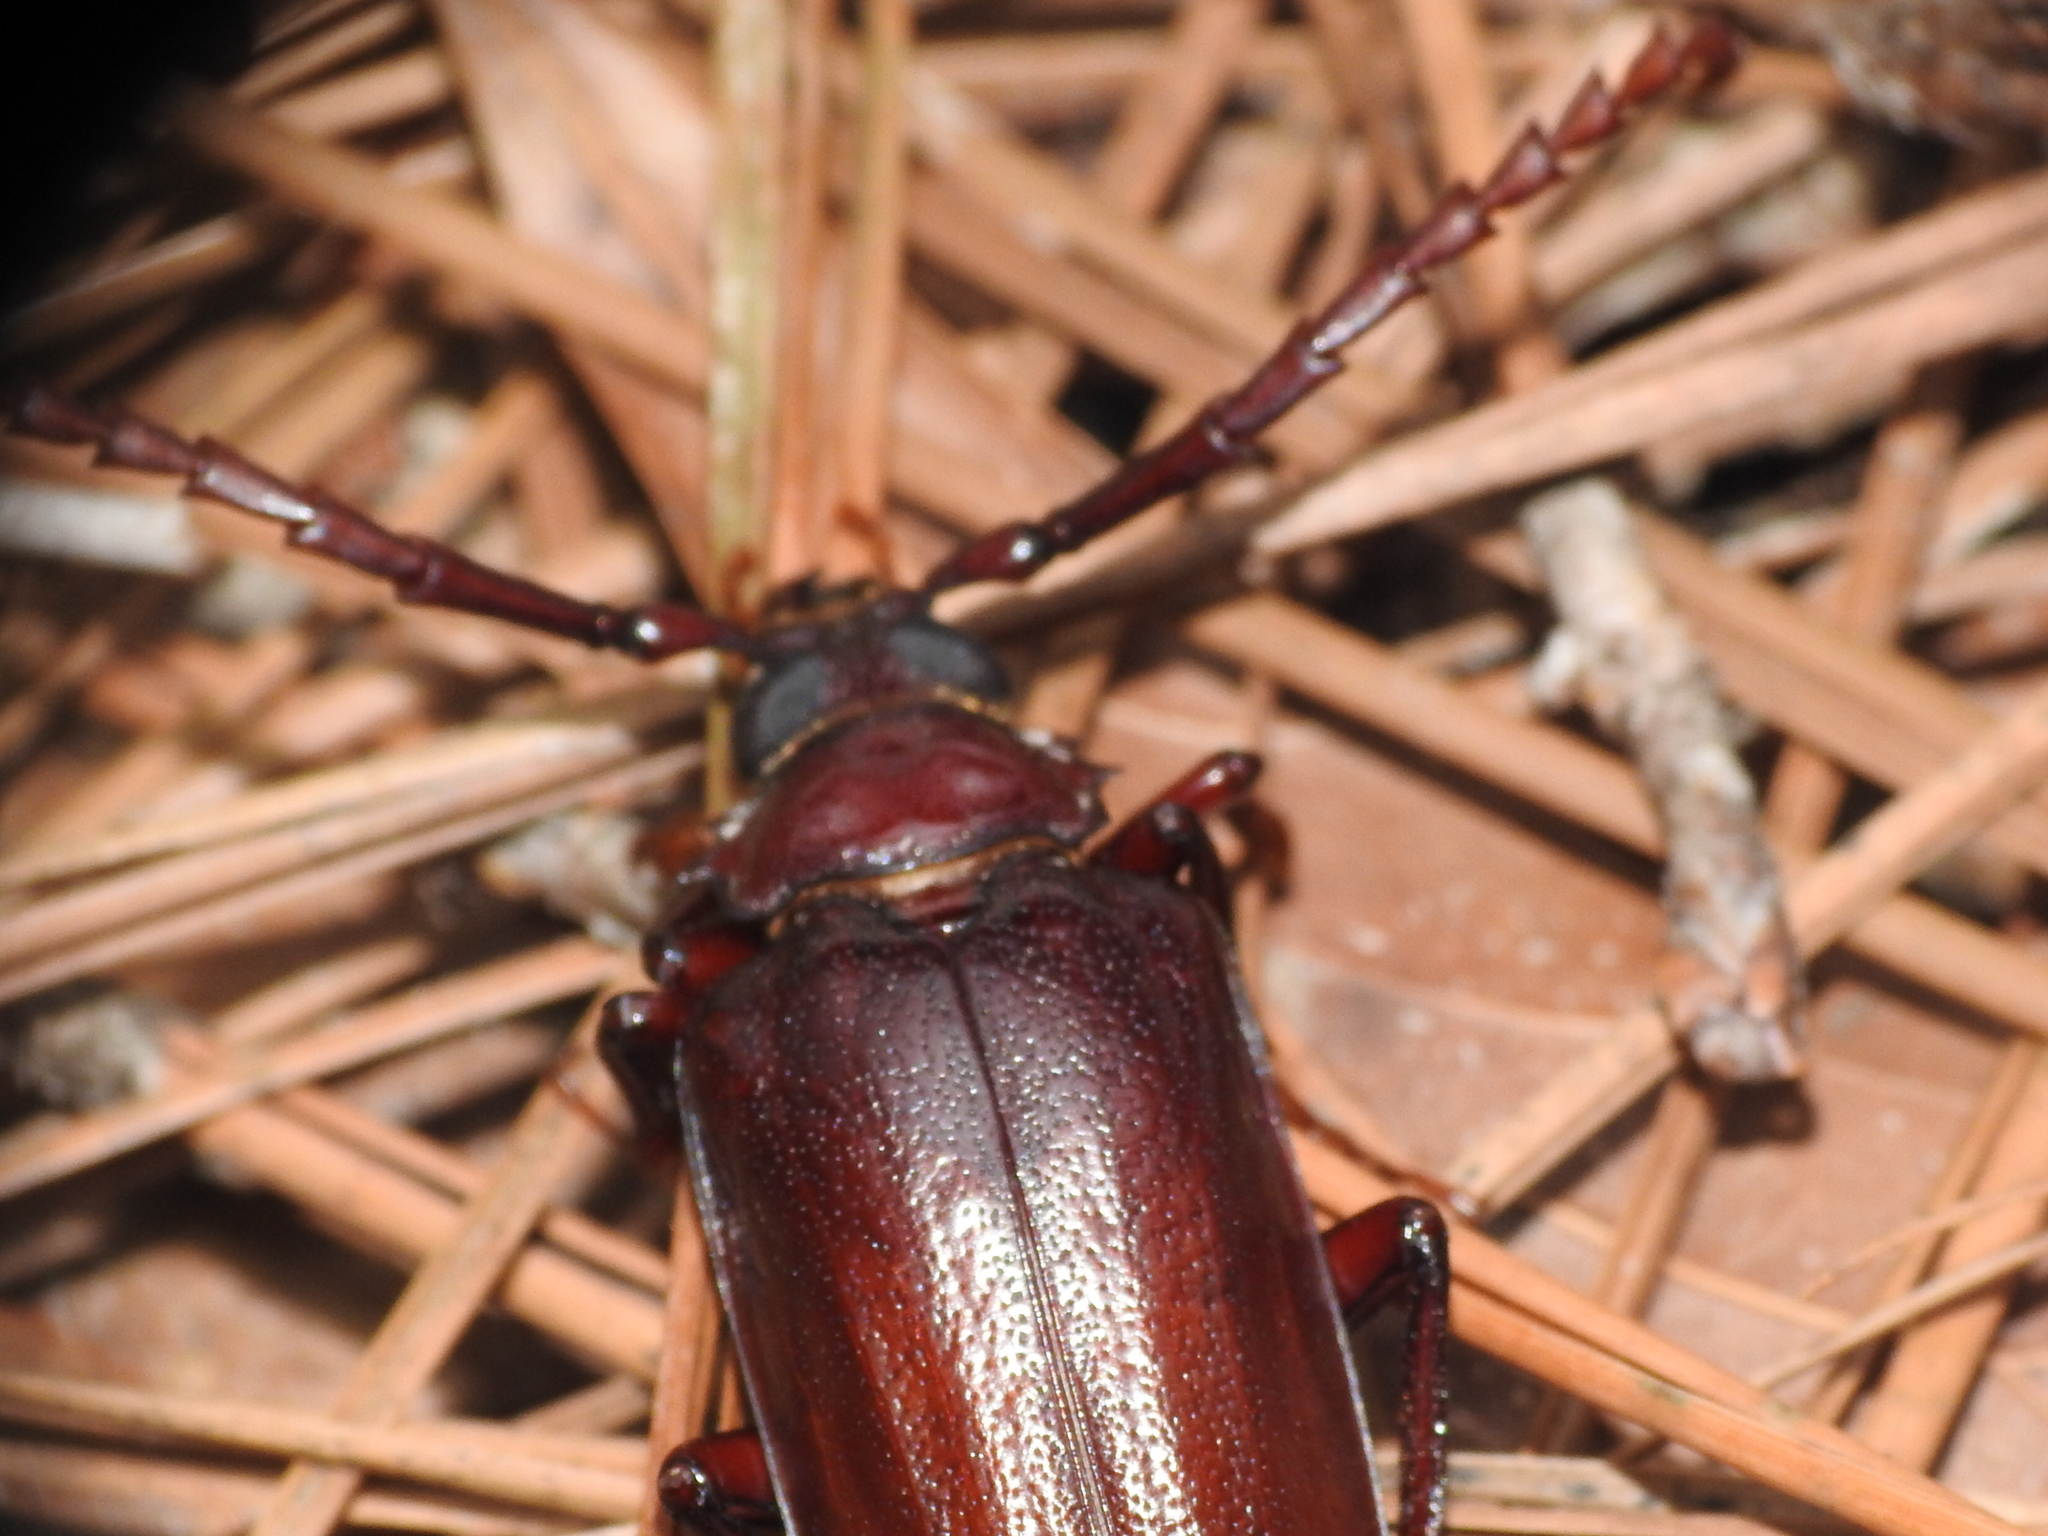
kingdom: Animalia
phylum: Arthropoda
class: Insecta
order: Coleoptera
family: Cerambycidae
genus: Prionus
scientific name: Prionus pocularis
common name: Tooth-necked longhorn beetle
